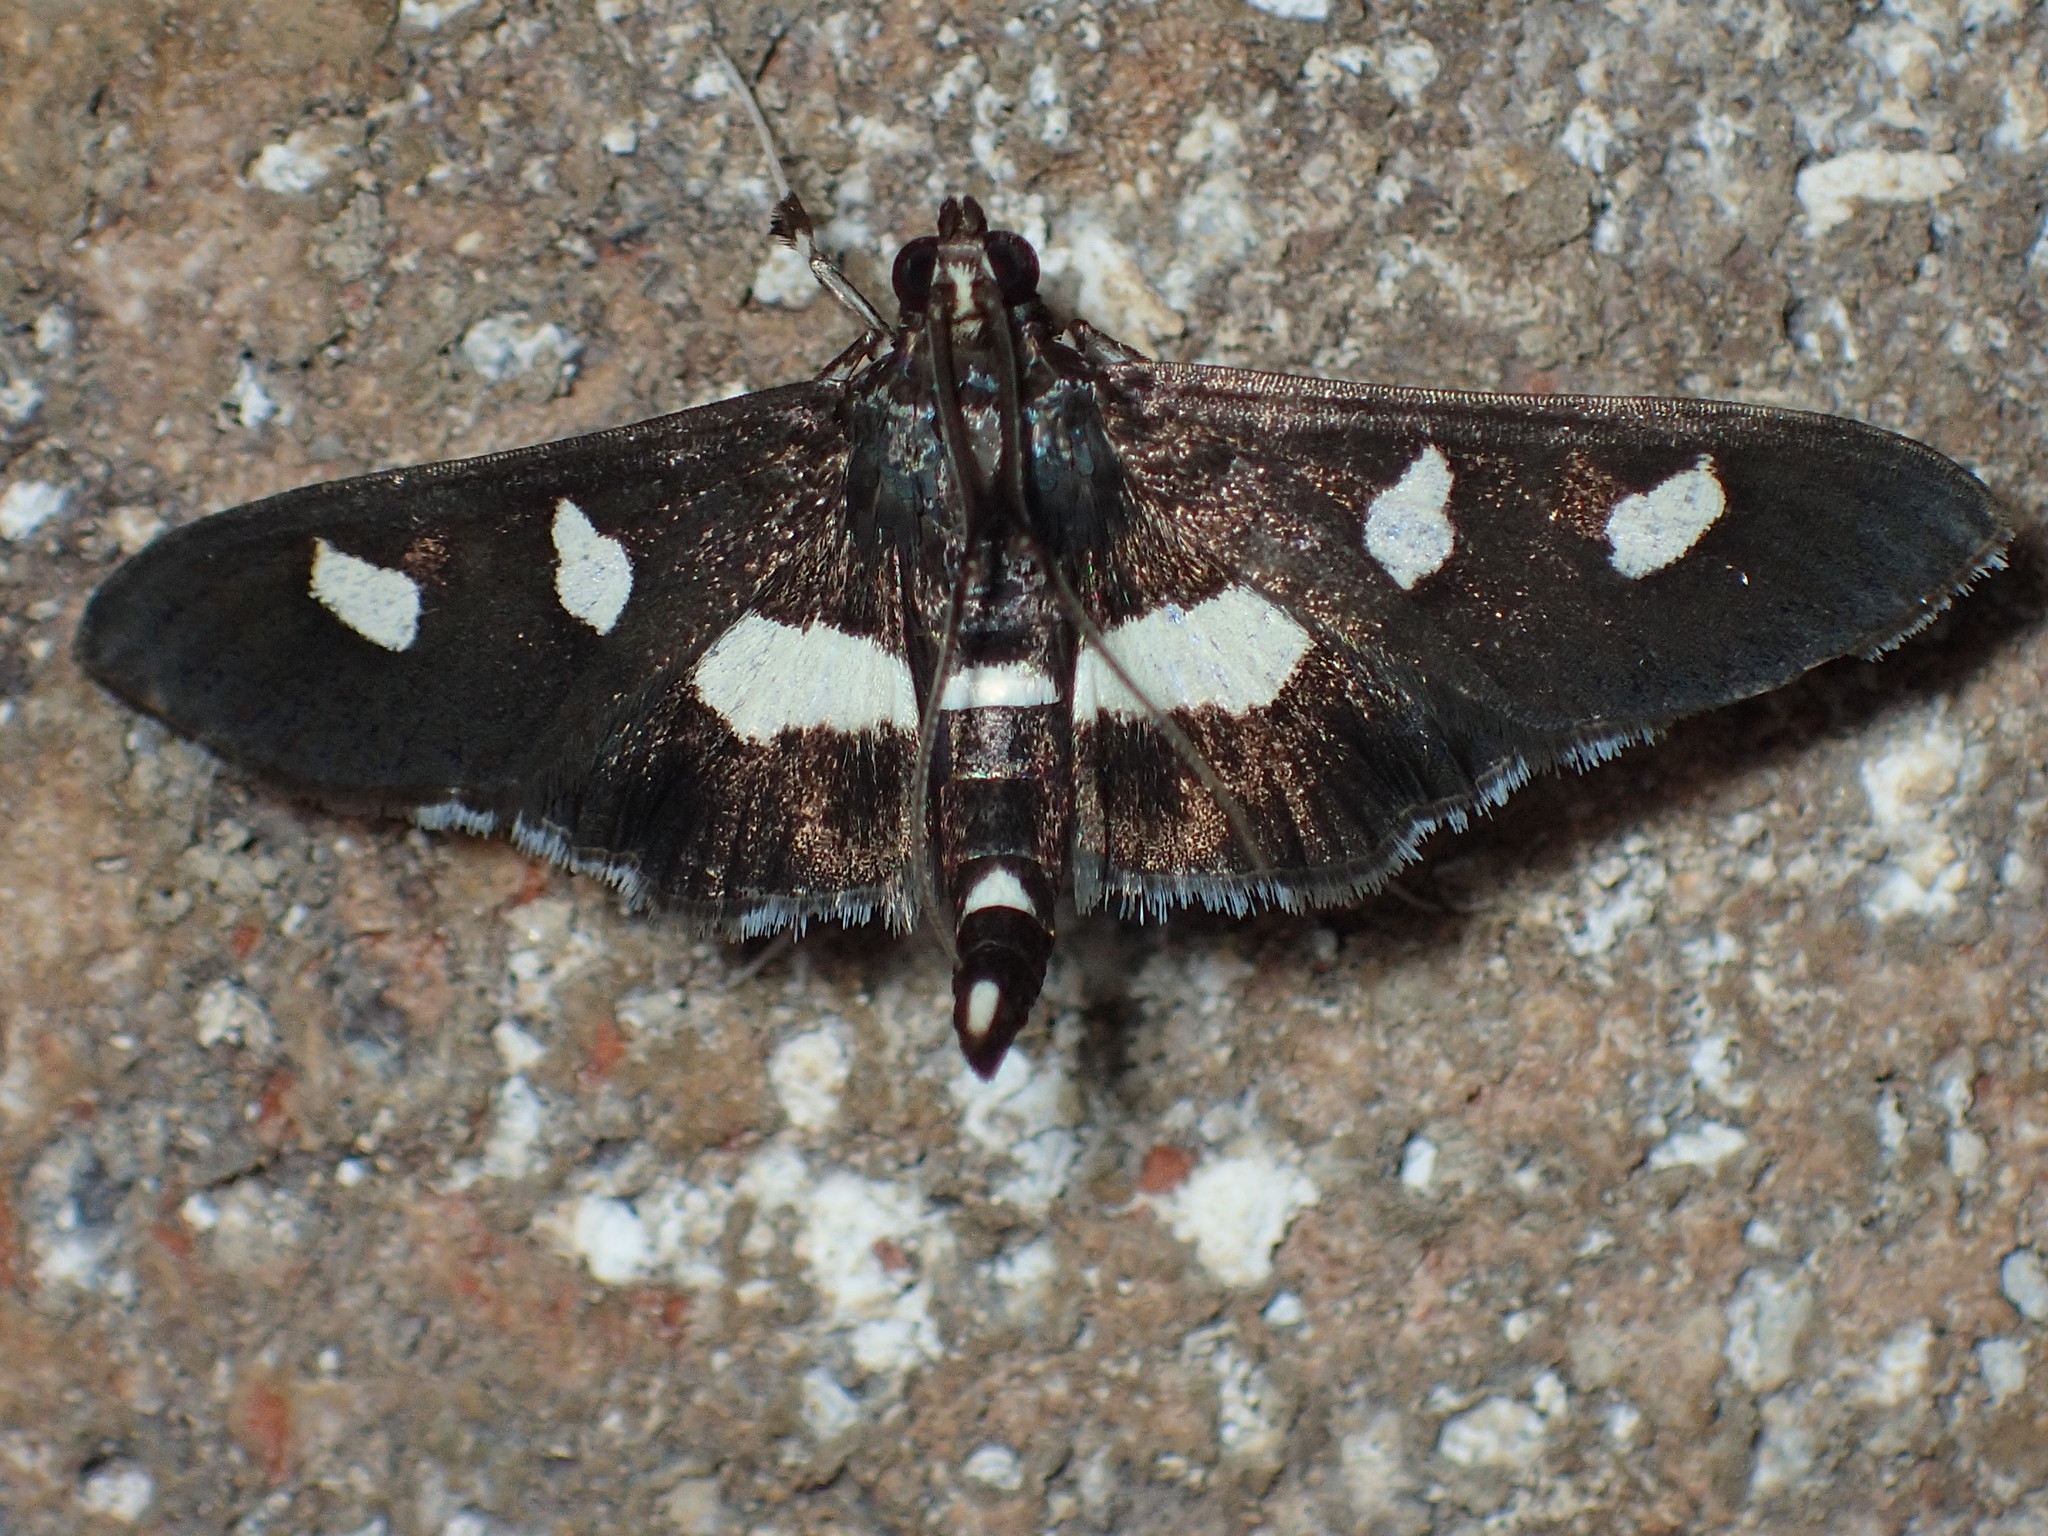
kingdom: Animalia
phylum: Arthropoda
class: Insecta
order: Lepidoptera
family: Crambidae
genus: Desmia
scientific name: Desmia
